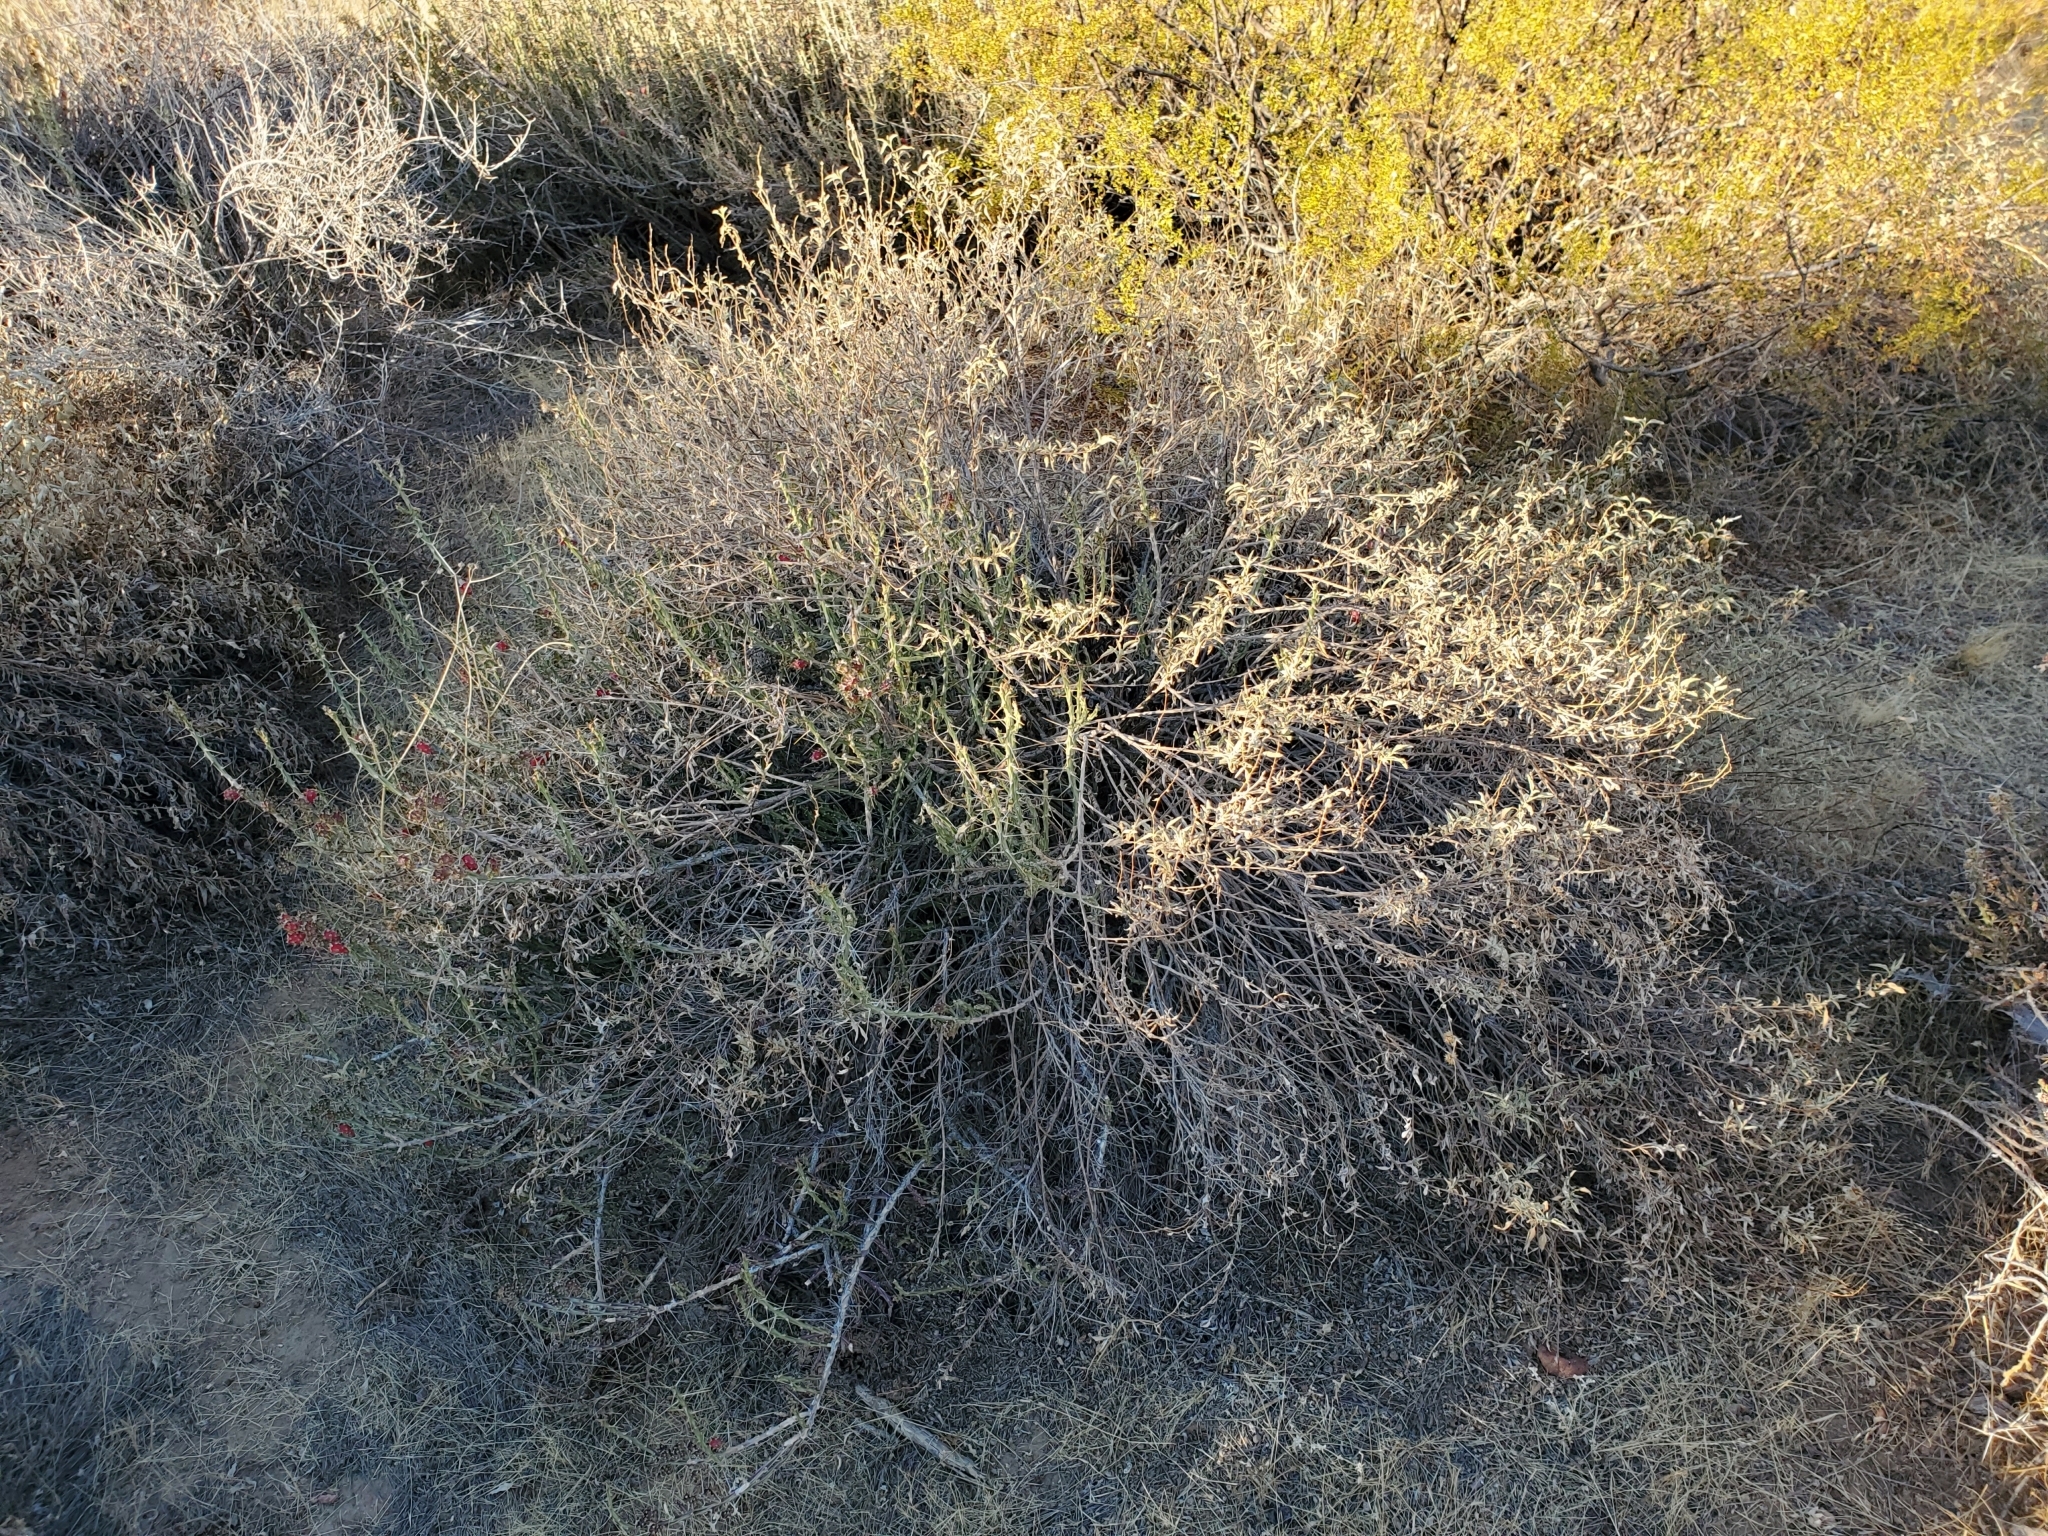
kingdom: Plantae
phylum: Tracheophyta
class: Magnoliopsida
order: Asterales
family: Asteraceae
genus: Ambrosia
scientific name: Ambrosia deltoidea
